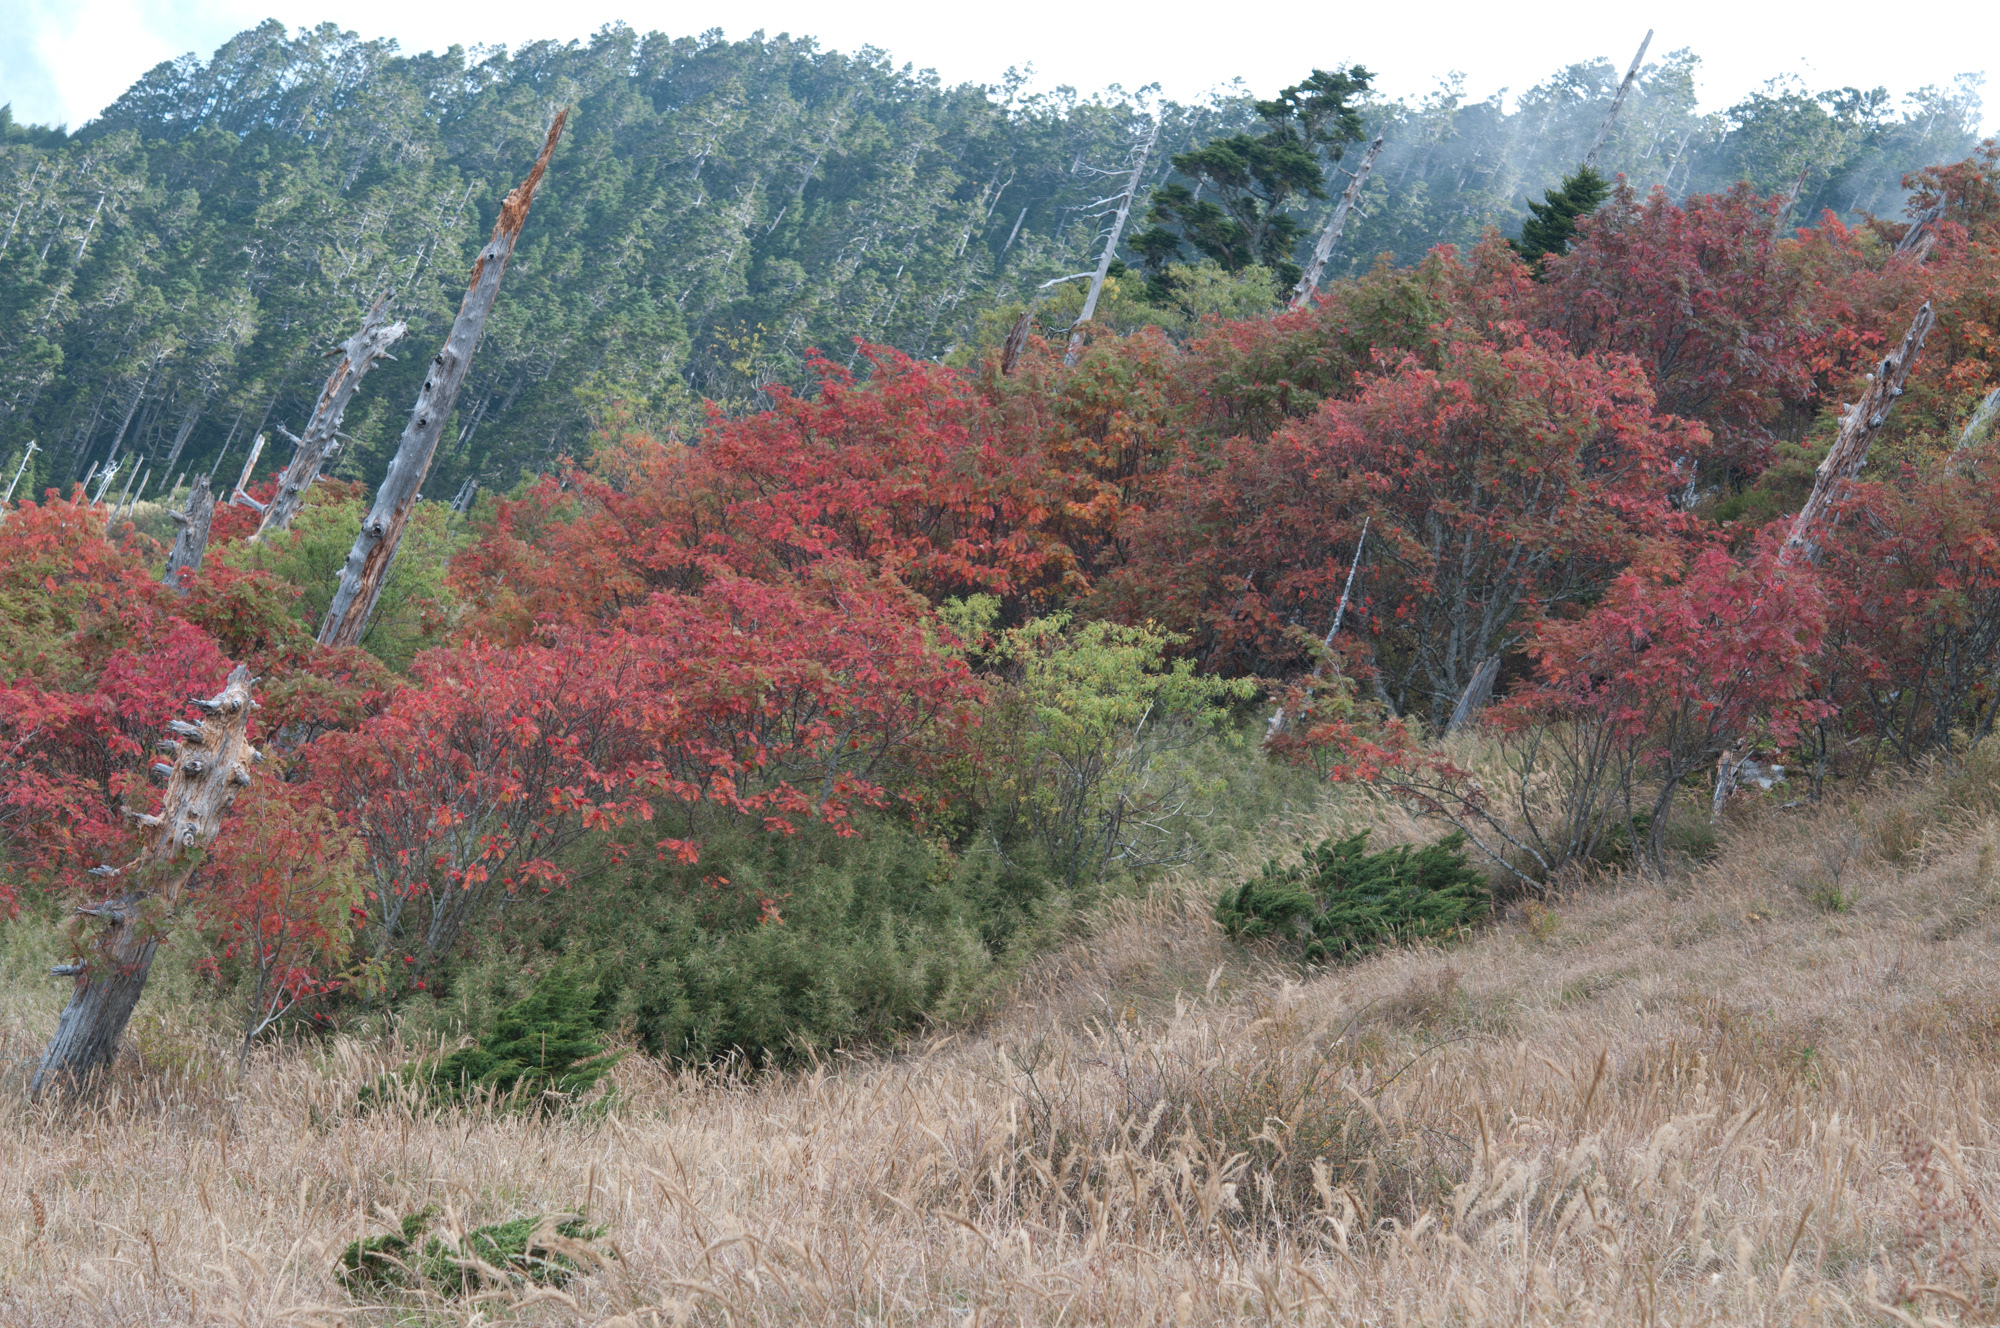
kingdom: Plantae
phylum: Tracheophyta
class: Magnoliopsida
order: Dipsacales
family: Viburnaceae
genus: Viburnum
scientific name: Viburnum betulifolium
